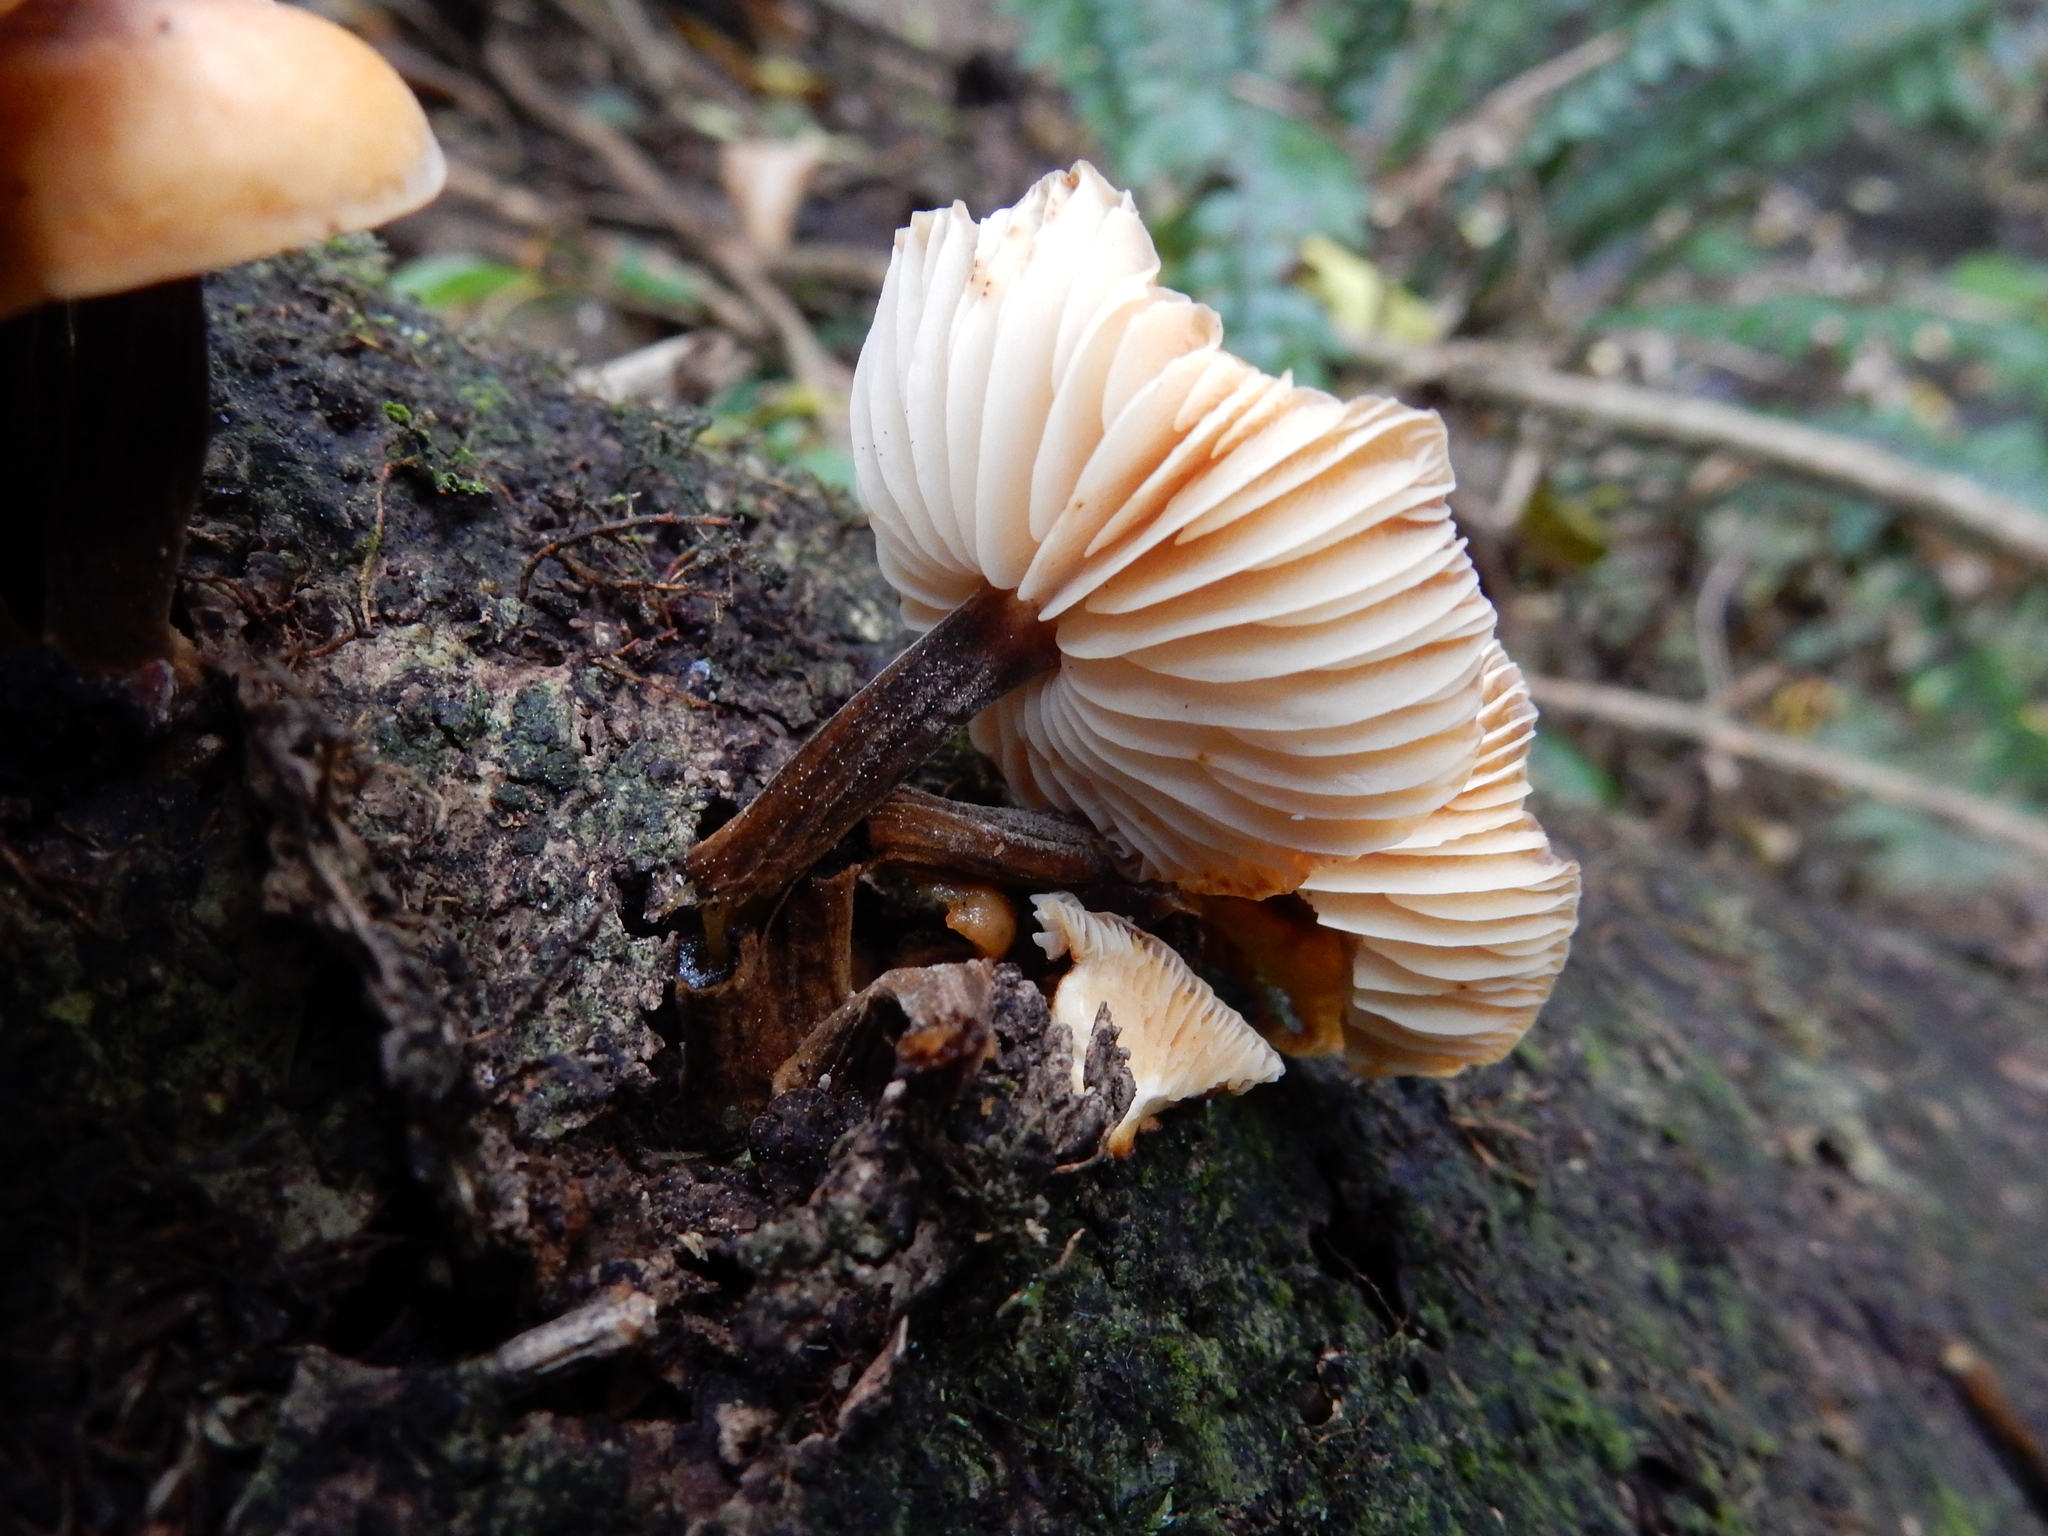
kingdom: Fungi
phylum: Basidiomycota
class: Agaricomycetes
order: Agaricales
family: Physalacriaceae
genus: Flammulina
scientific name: Flammulina velutipes
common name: Velvet shank
